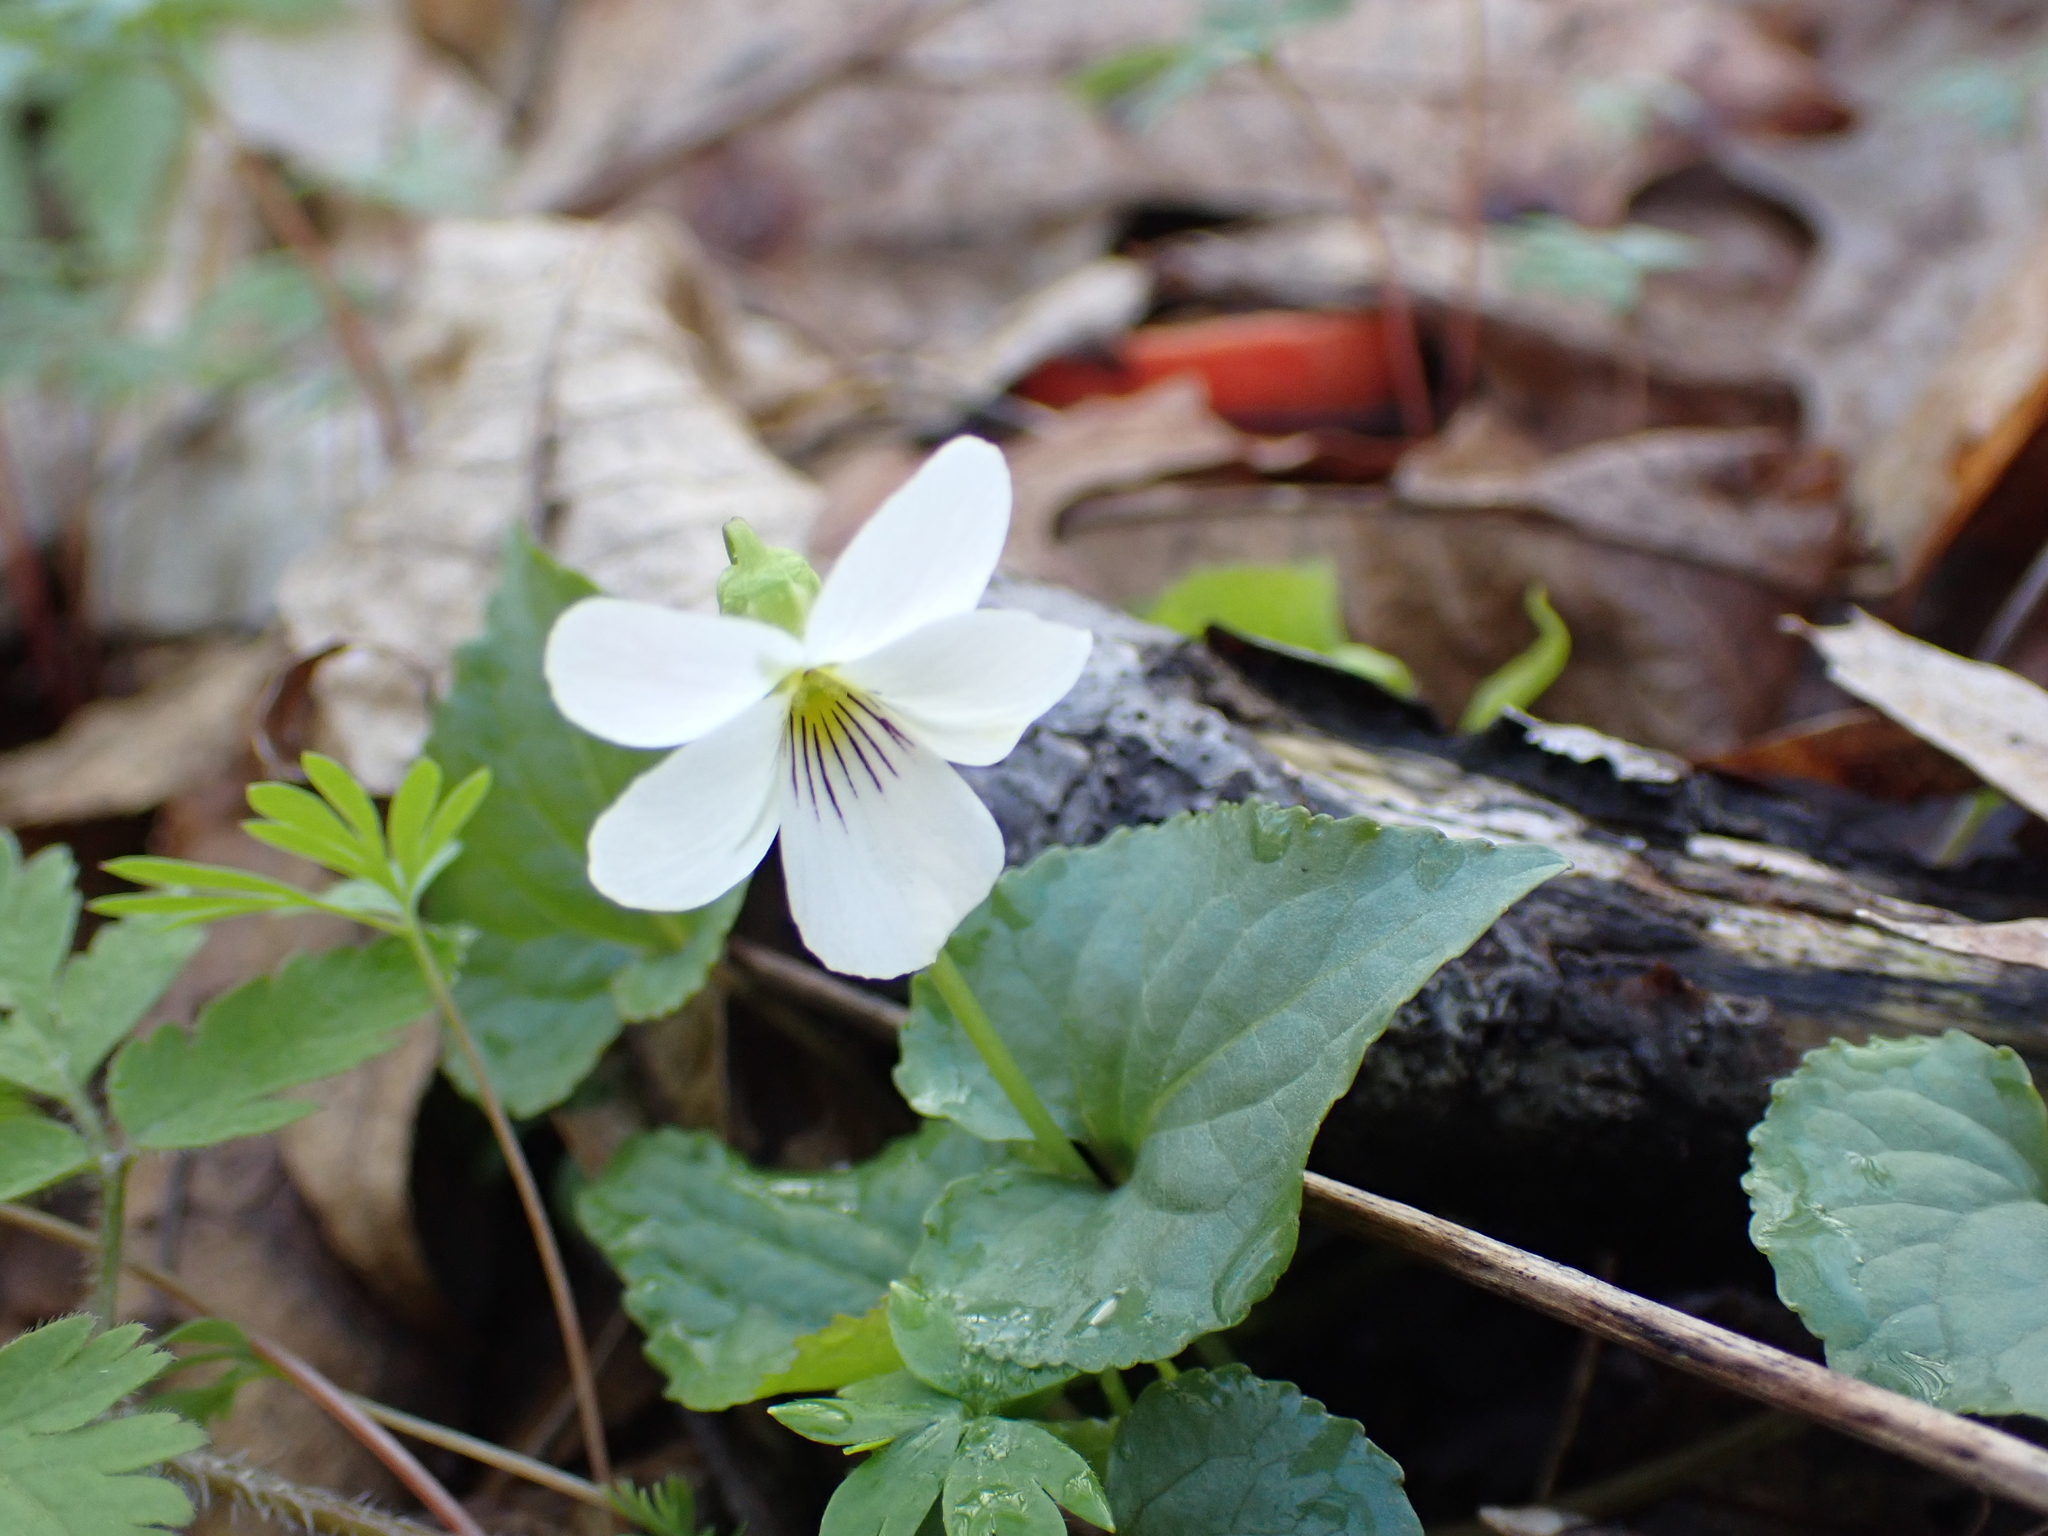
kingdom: Plantae
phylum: Tracheophyta
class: Magnoliopsida
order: Malpighiales
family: Violaceae
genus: Viola
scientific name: Viola canadensis
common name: Canada violet
